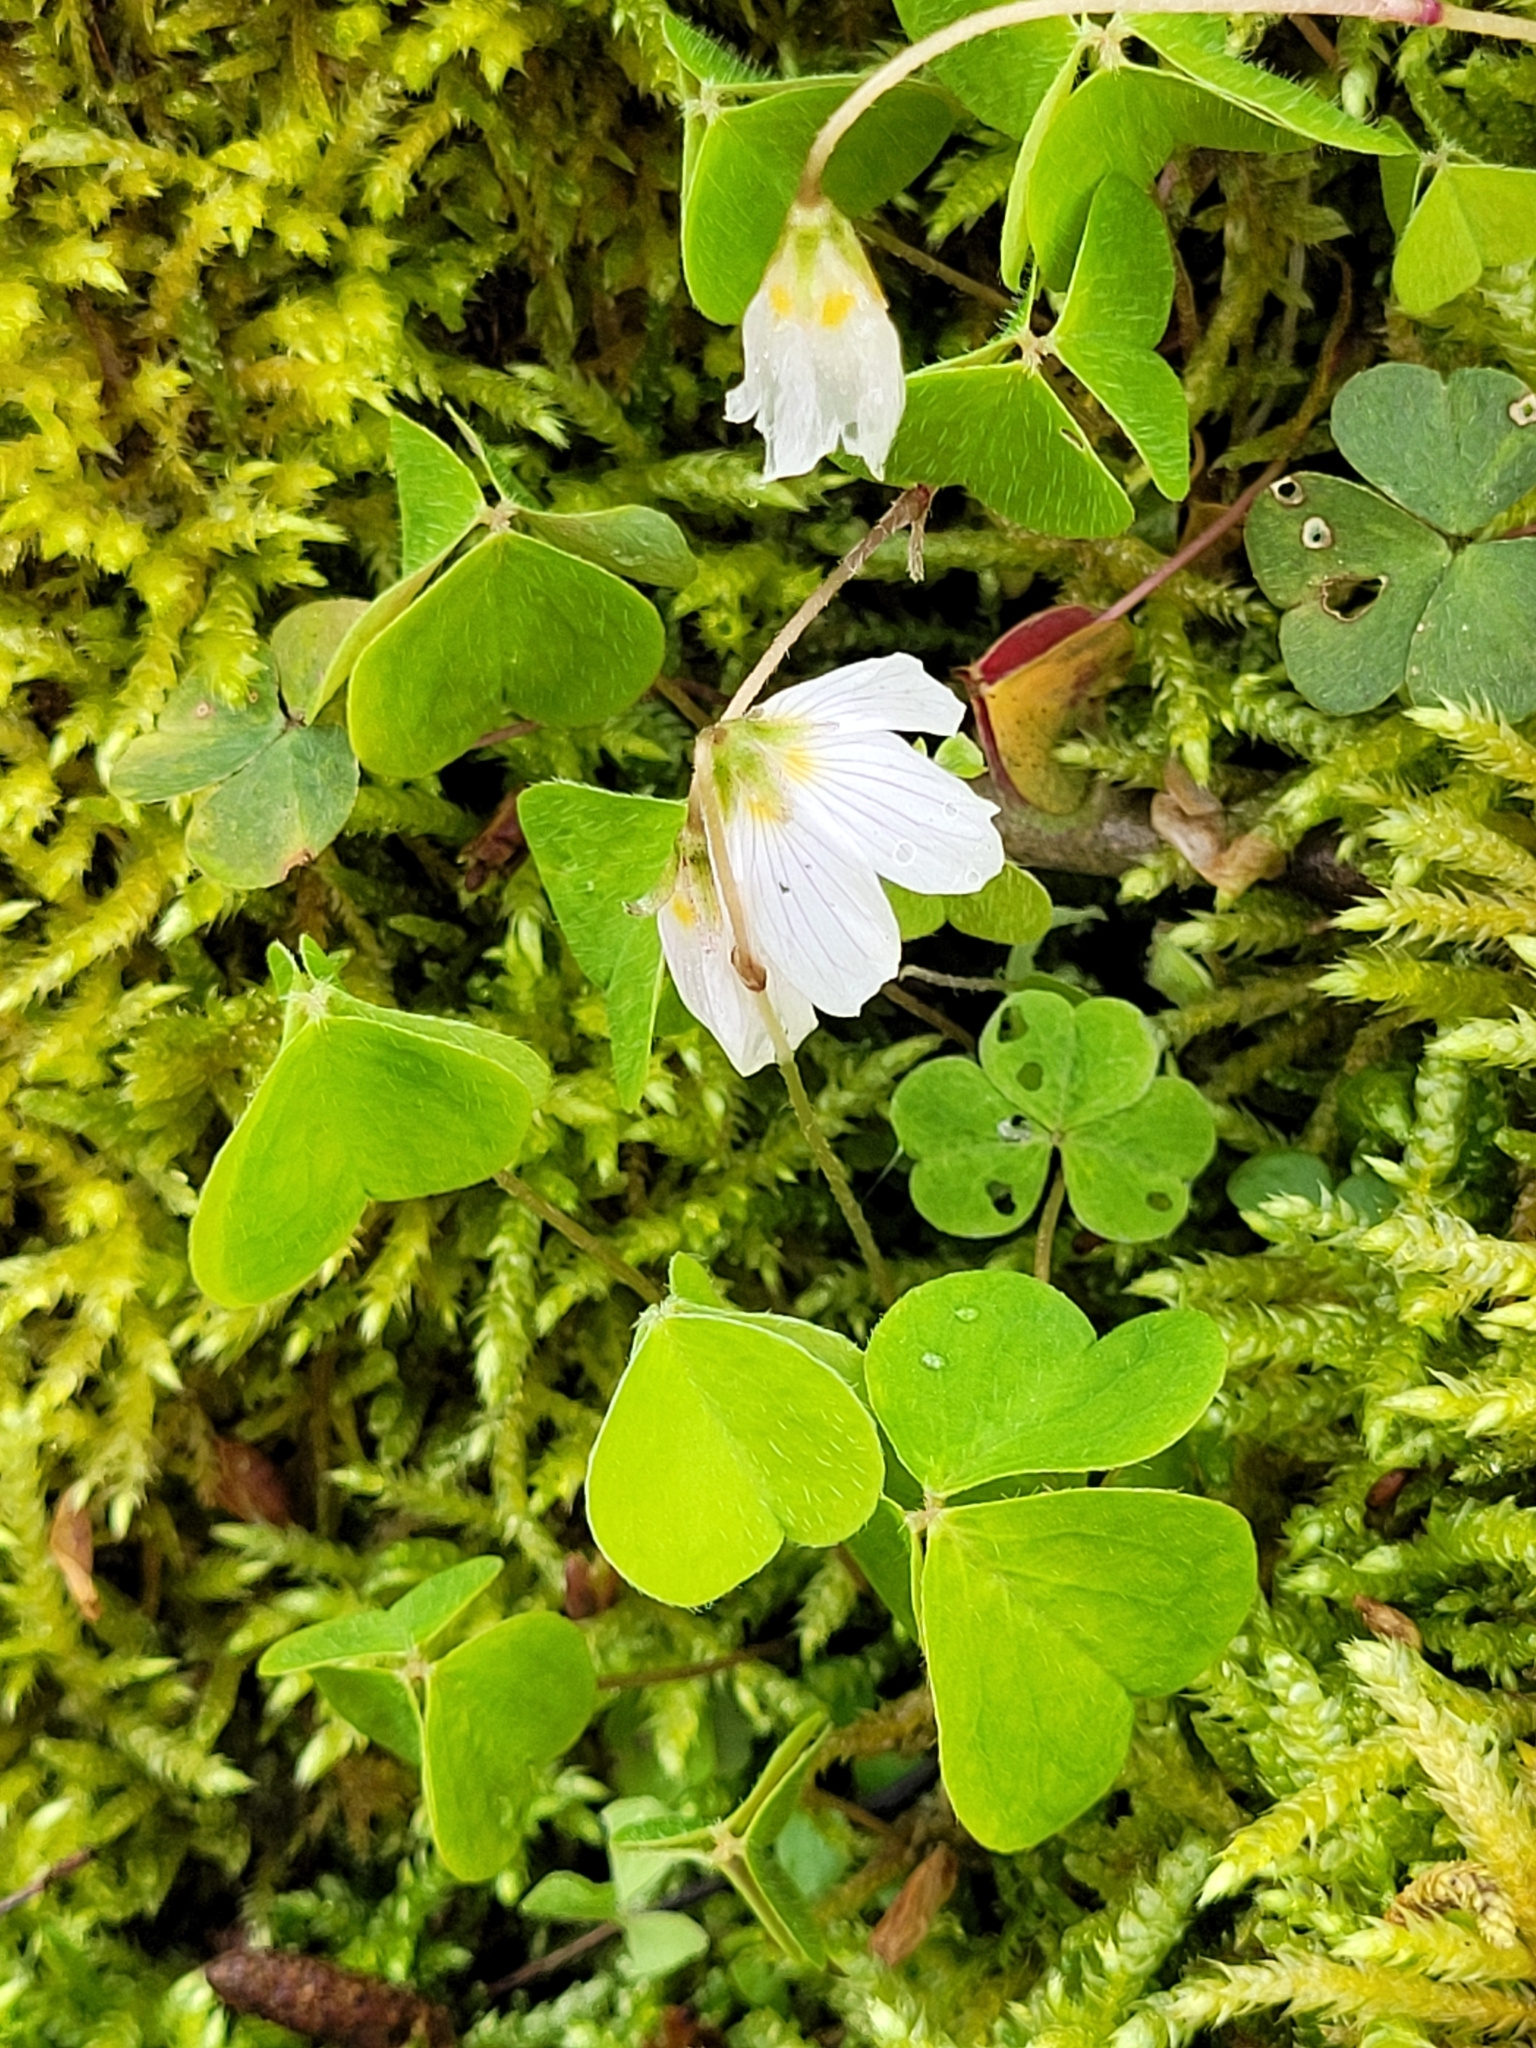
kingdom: Plantae
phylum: Tracheophyta
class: Magnoliopsida
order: Oxalidales
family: Oxalidaceae
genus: Oxalis
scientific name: Oxalis acetosella
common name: Wood-sorrel
